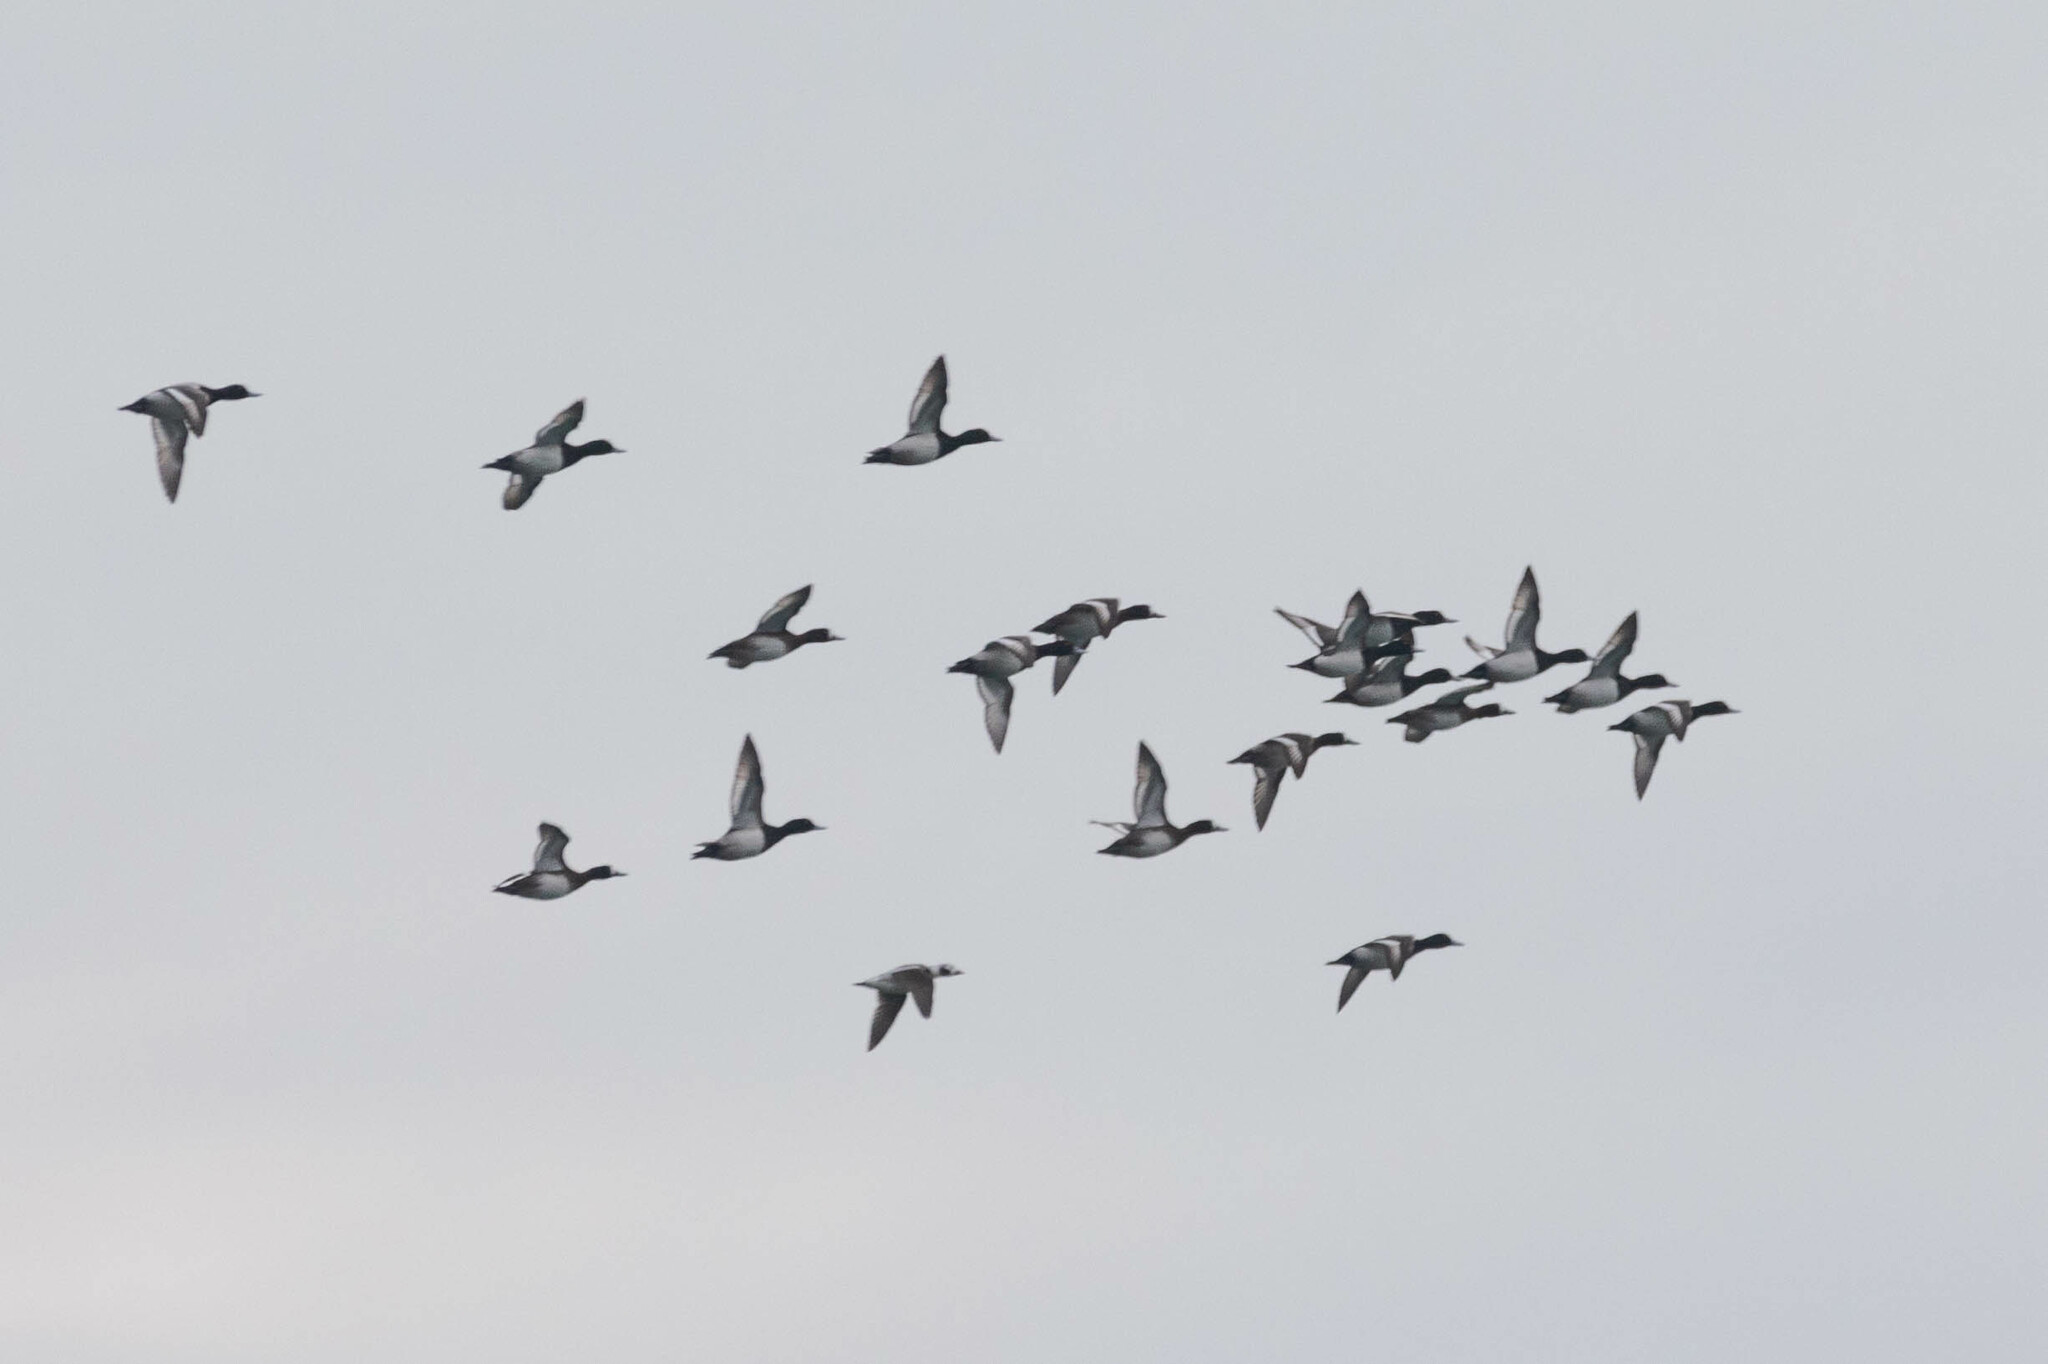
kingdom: Animalia
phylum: Chordata
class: Aves
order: Anseriformes
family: Anatidae
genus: Aythya
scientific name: Aythya marila
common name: Greater scaup
